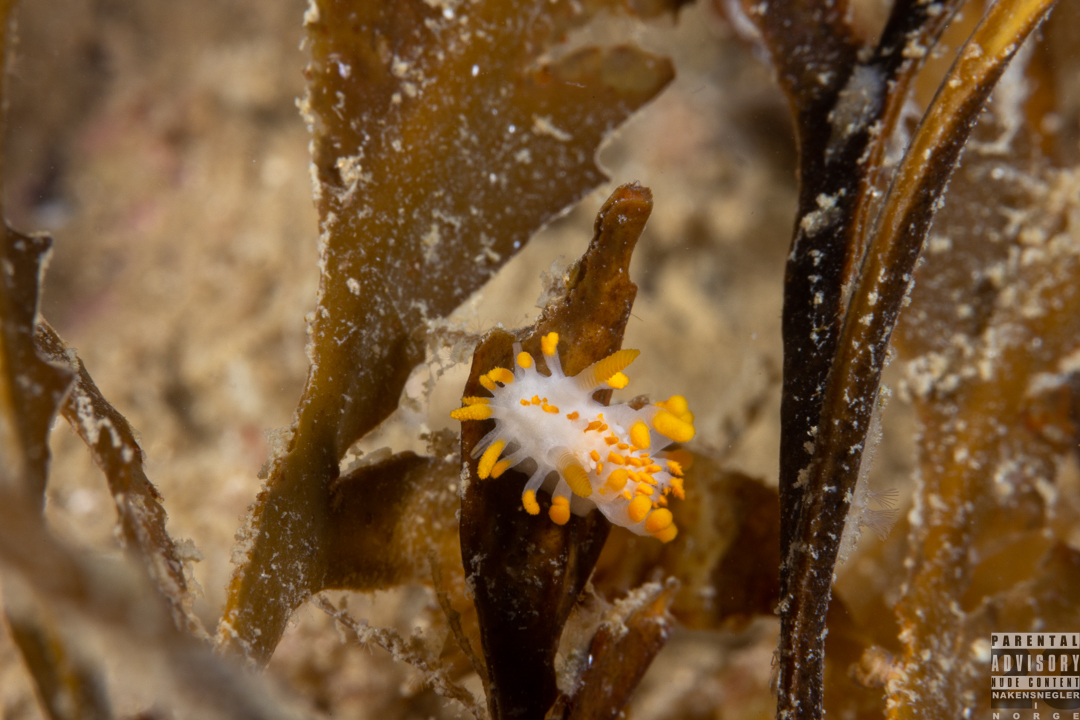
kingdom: Animalia
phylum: Mollusca
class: Gastropoda
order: Nudibranchia
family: Polyceridae
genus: Limacia
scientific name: Limacia clavigera
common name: Orange-clubbed sea slug
